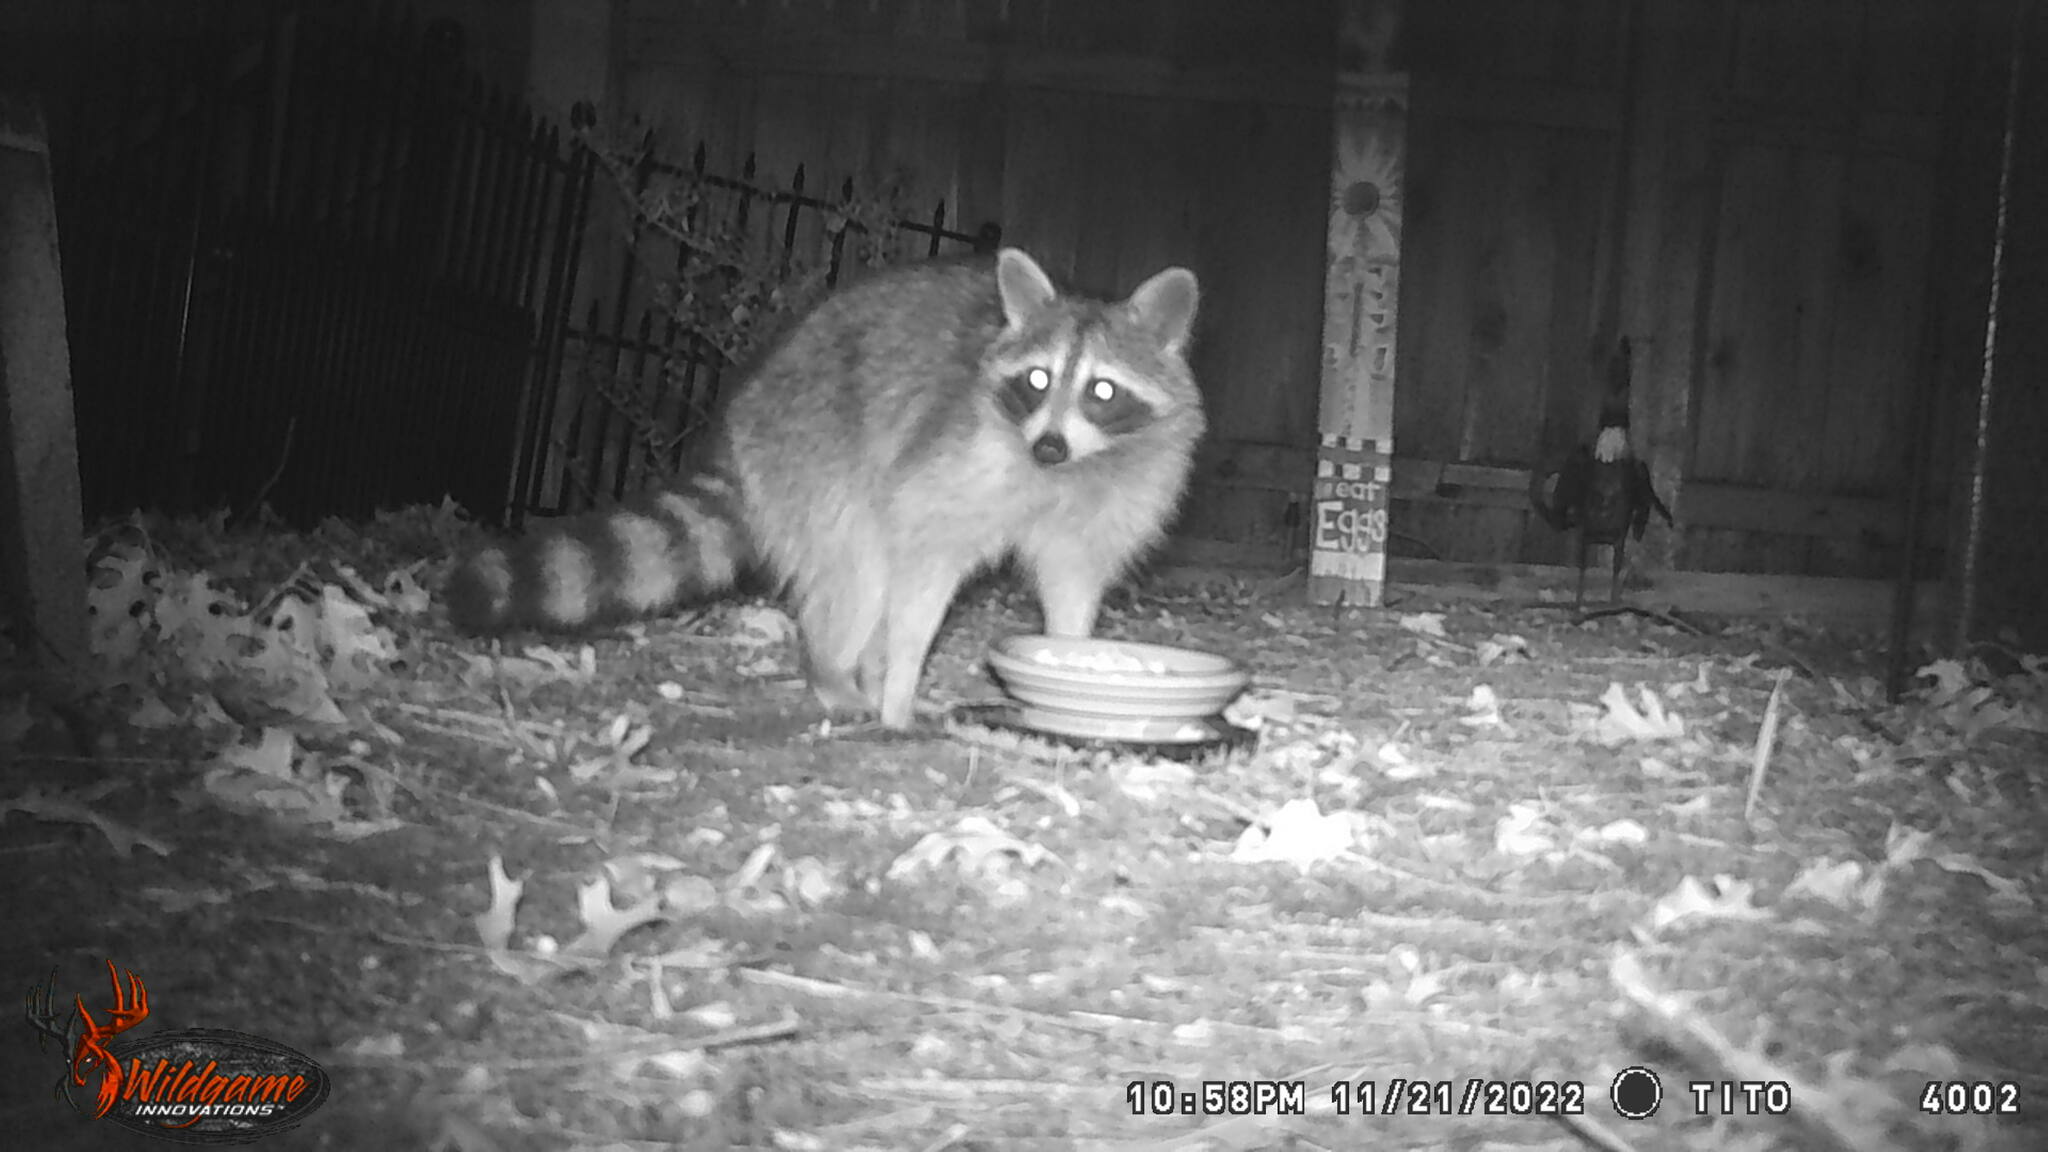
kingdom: Animalia
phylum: Chordata
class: Mammalia
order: Carnivora
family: Procyonidae
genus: Procyon
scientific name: Procyon lotor
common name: Raccoon
